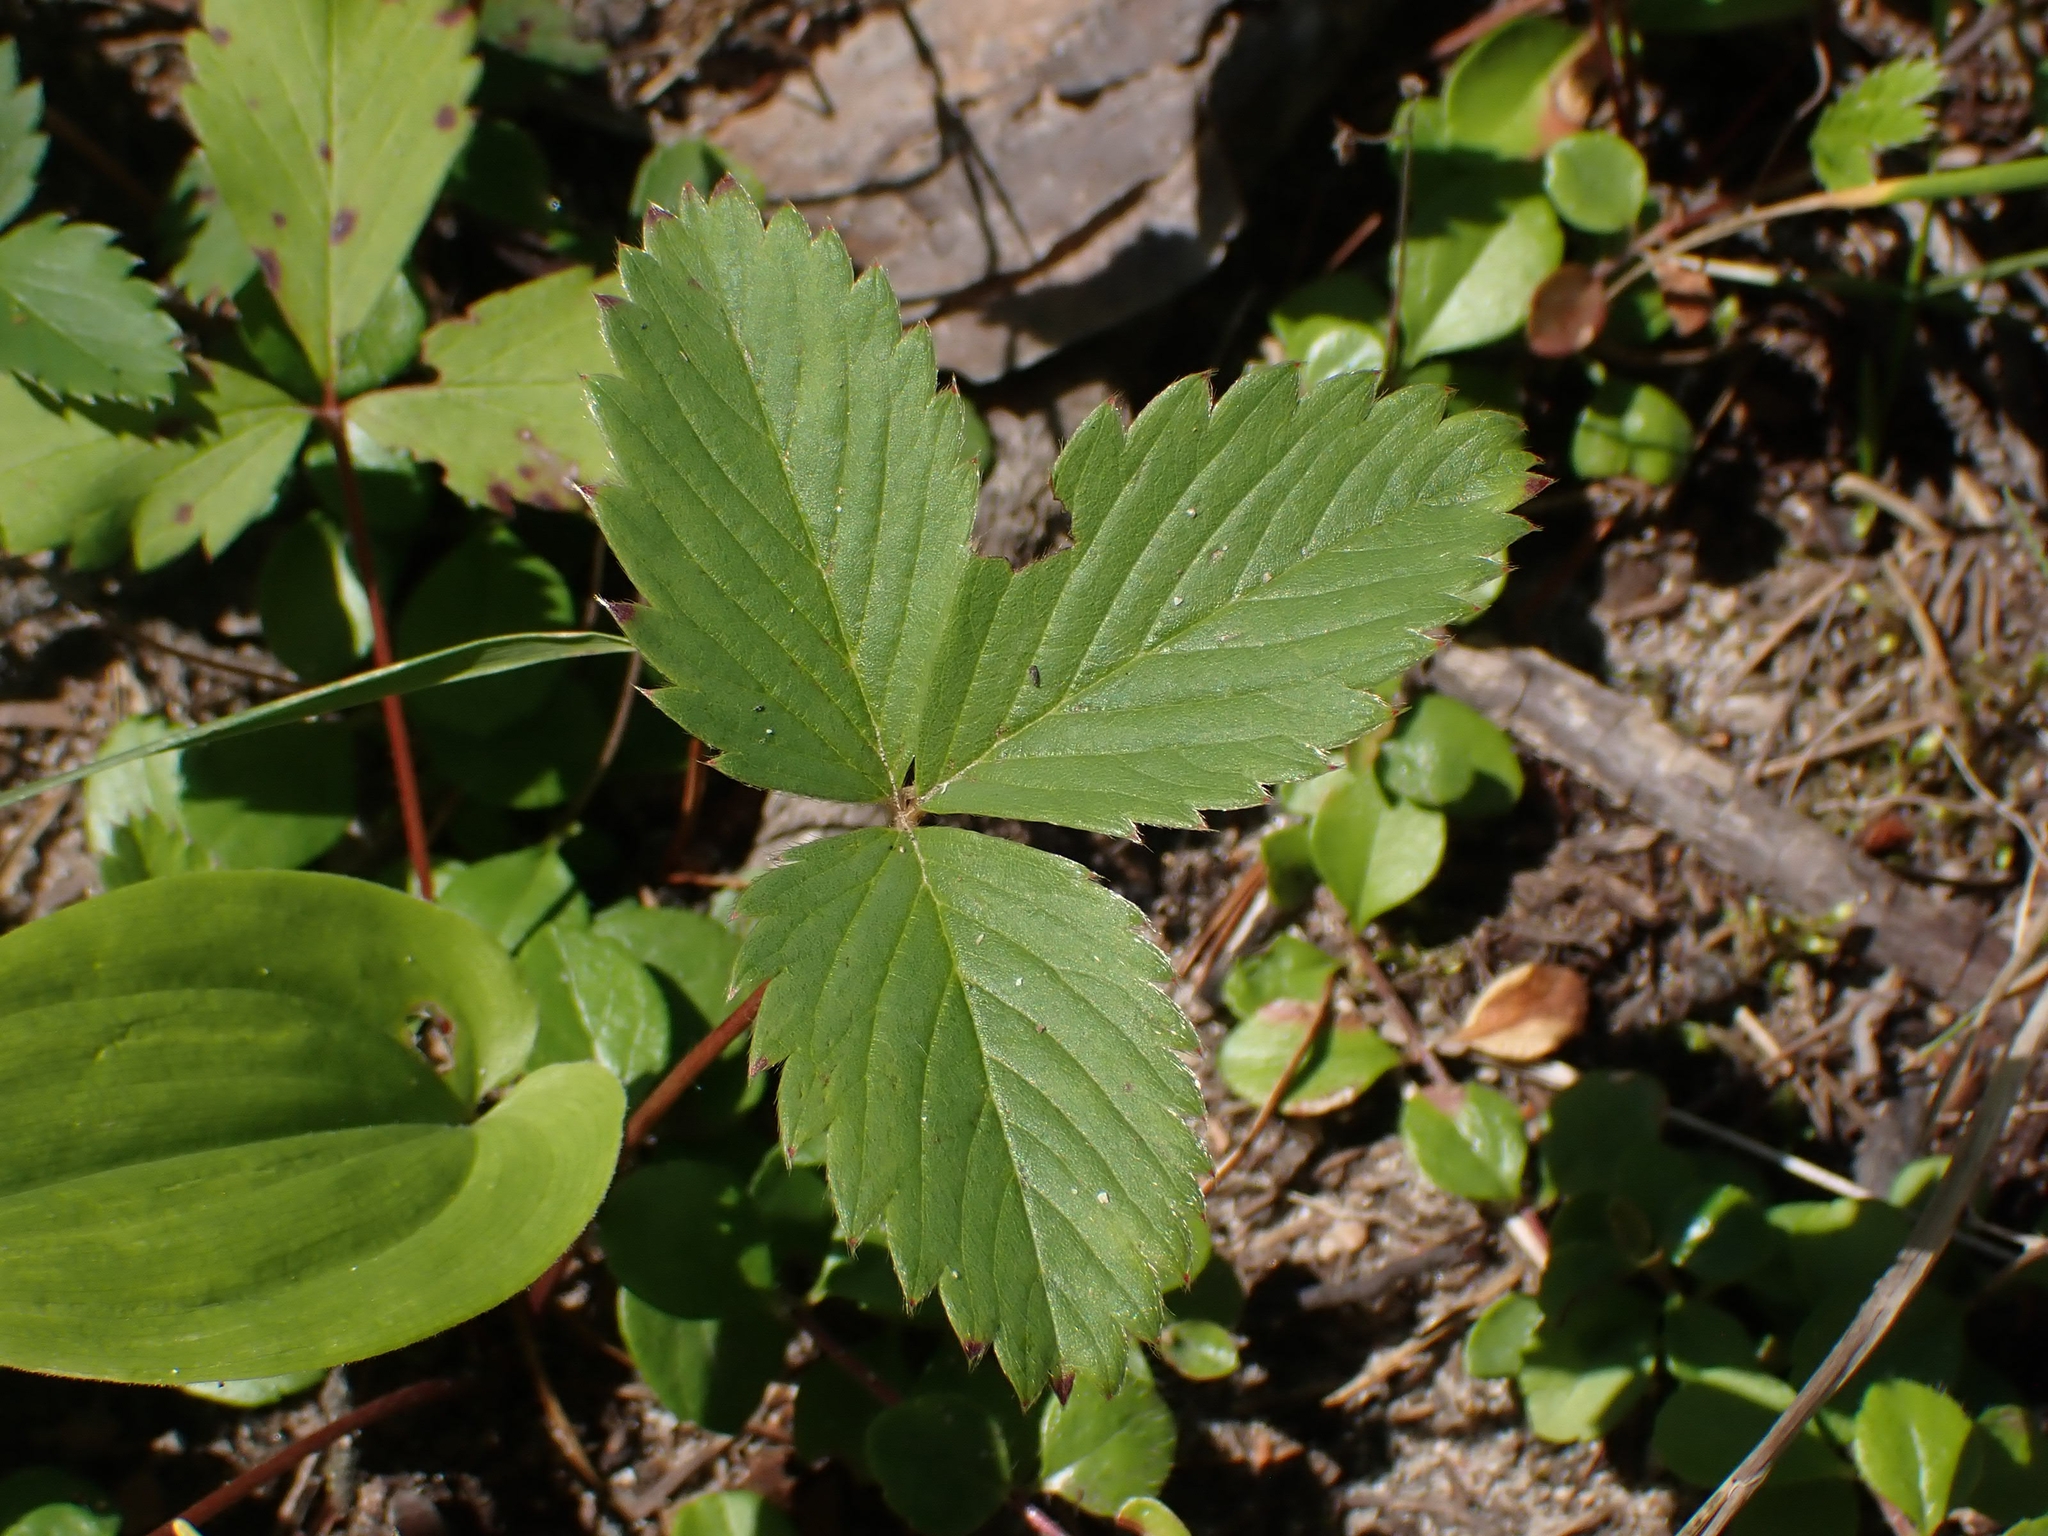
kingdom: Plantae
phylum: Tracheophyta
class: Magnoliopsida
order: Rosales
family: Rosaceae
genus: Fragaria
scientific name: Fragaria virginiana
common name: Thickleaved wild strawberry
